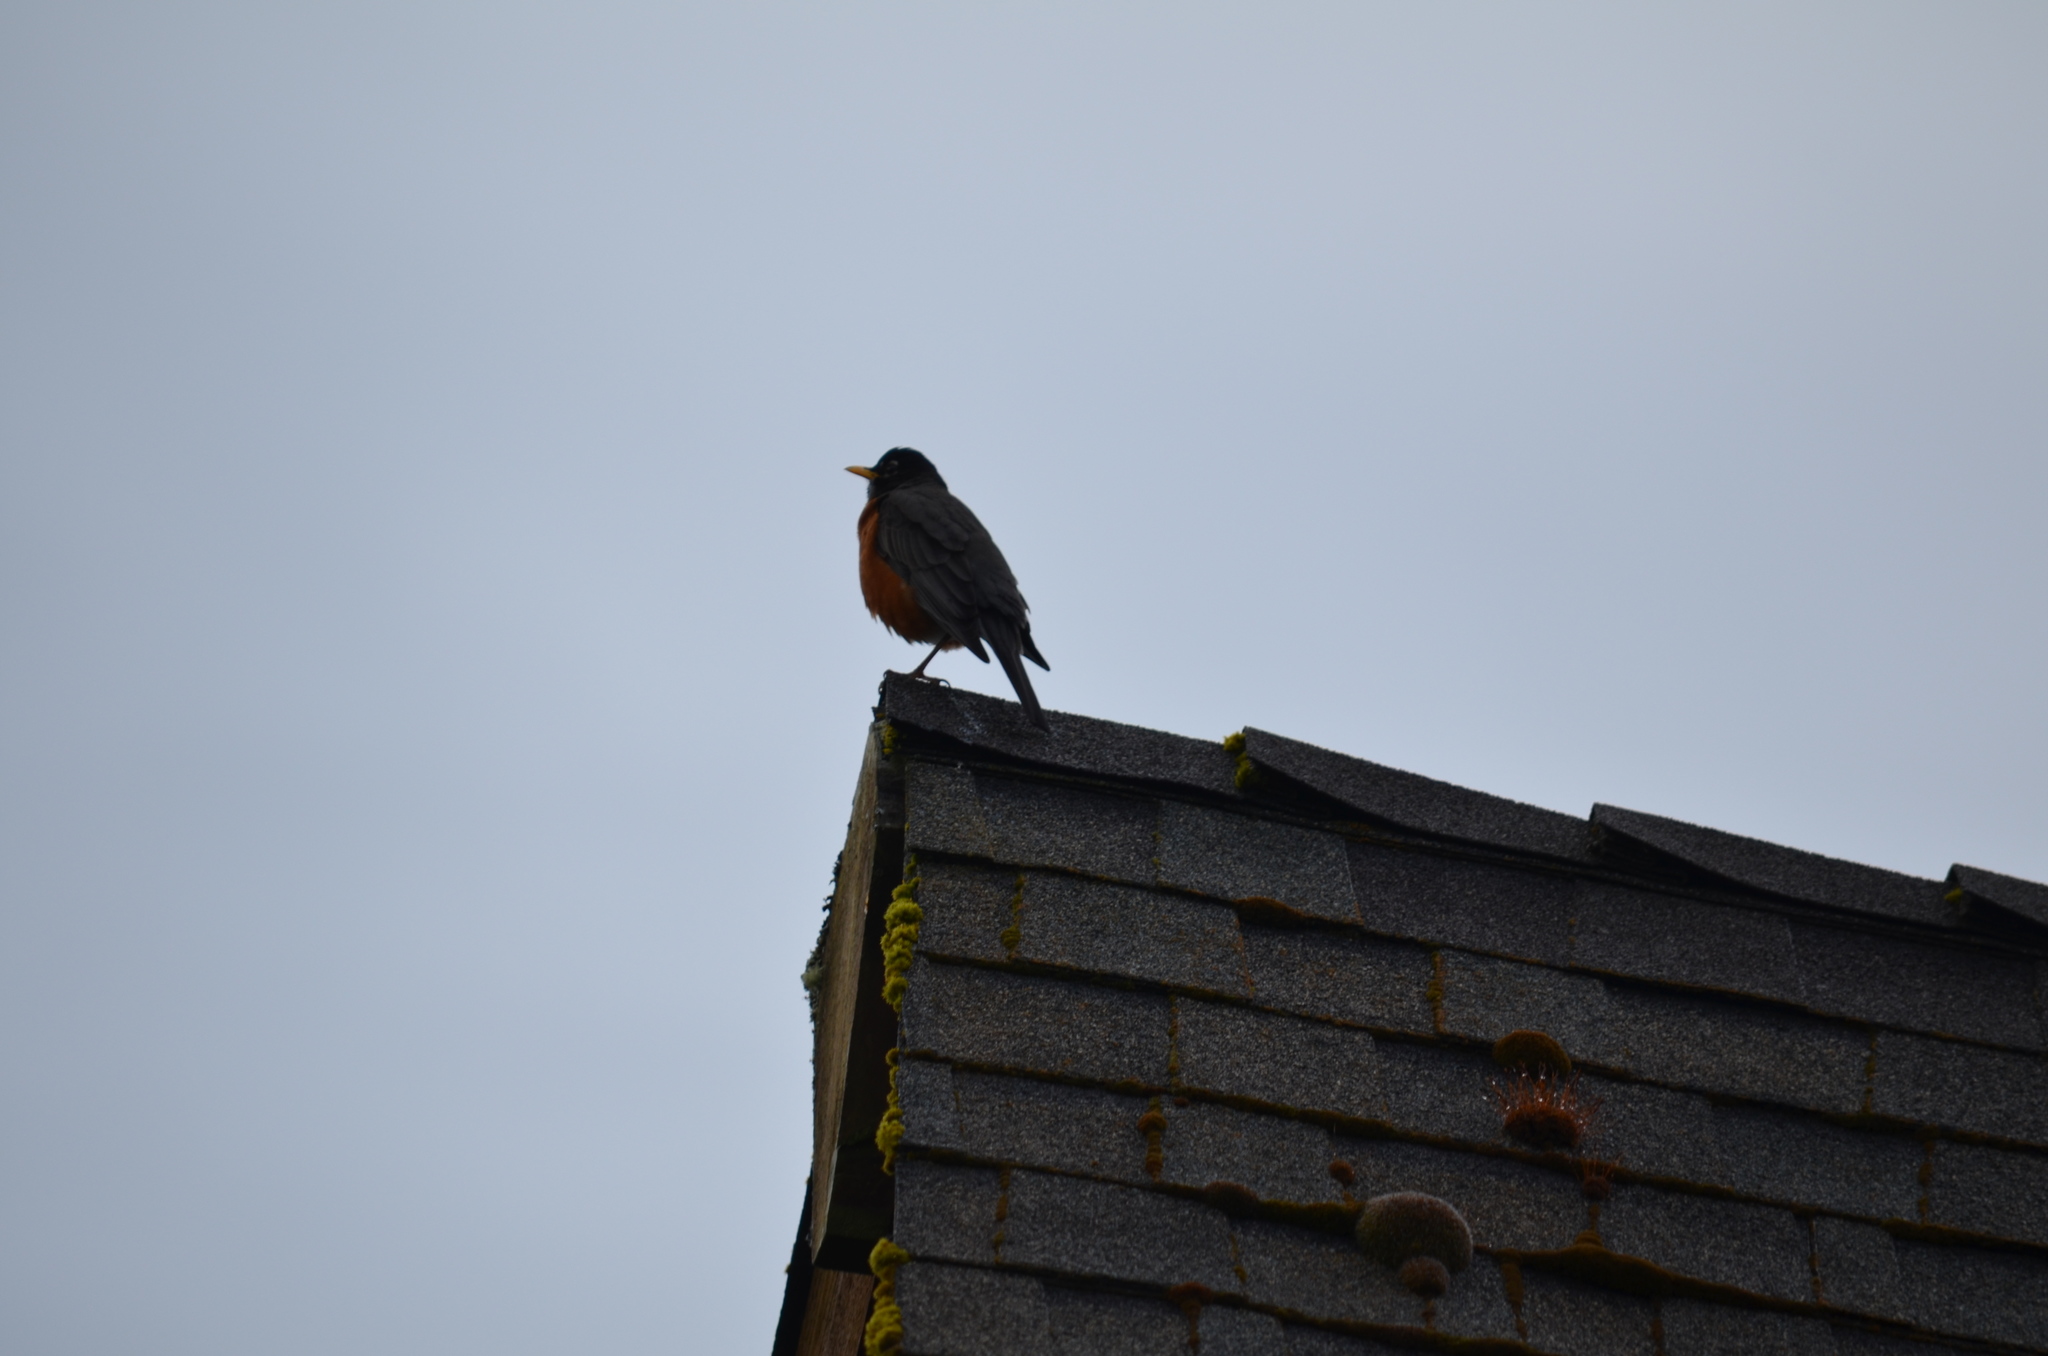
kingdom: Animalia
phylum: Chordata
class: Aves
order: Passeriformes
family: Turdidae
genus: Turdus
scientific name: Turdus migratorius
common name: American robin
